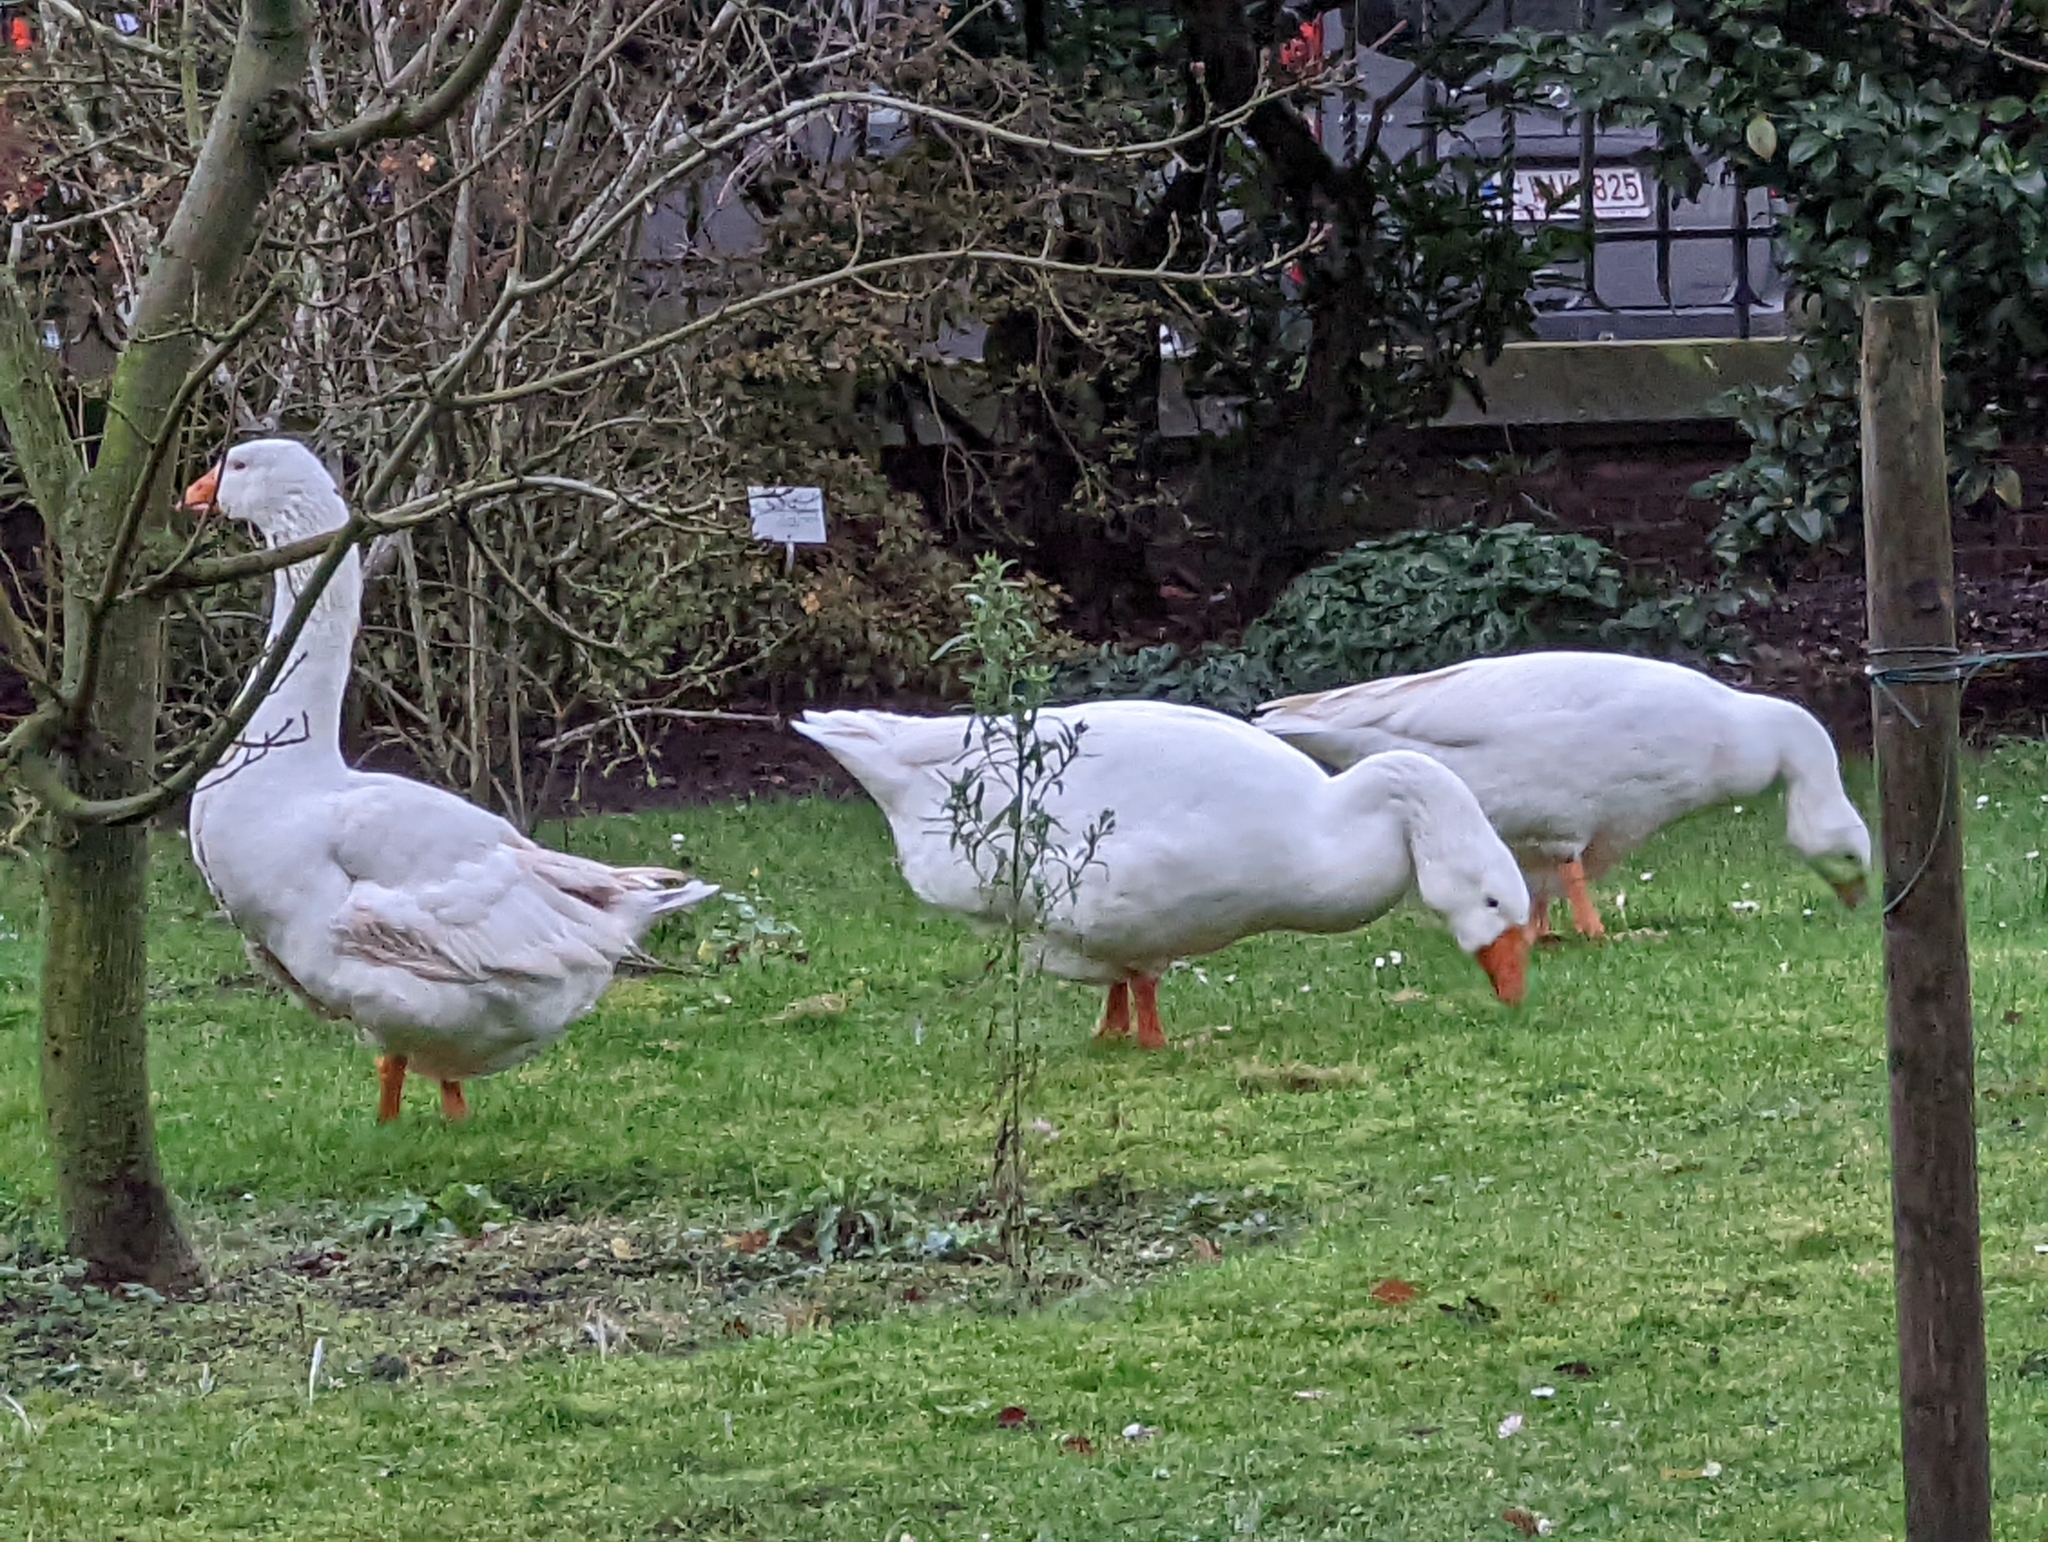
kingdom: Animalia
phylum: Chordata
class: Aves
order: Anseriformes
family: Anatidae
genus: Anser
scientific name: Anser
